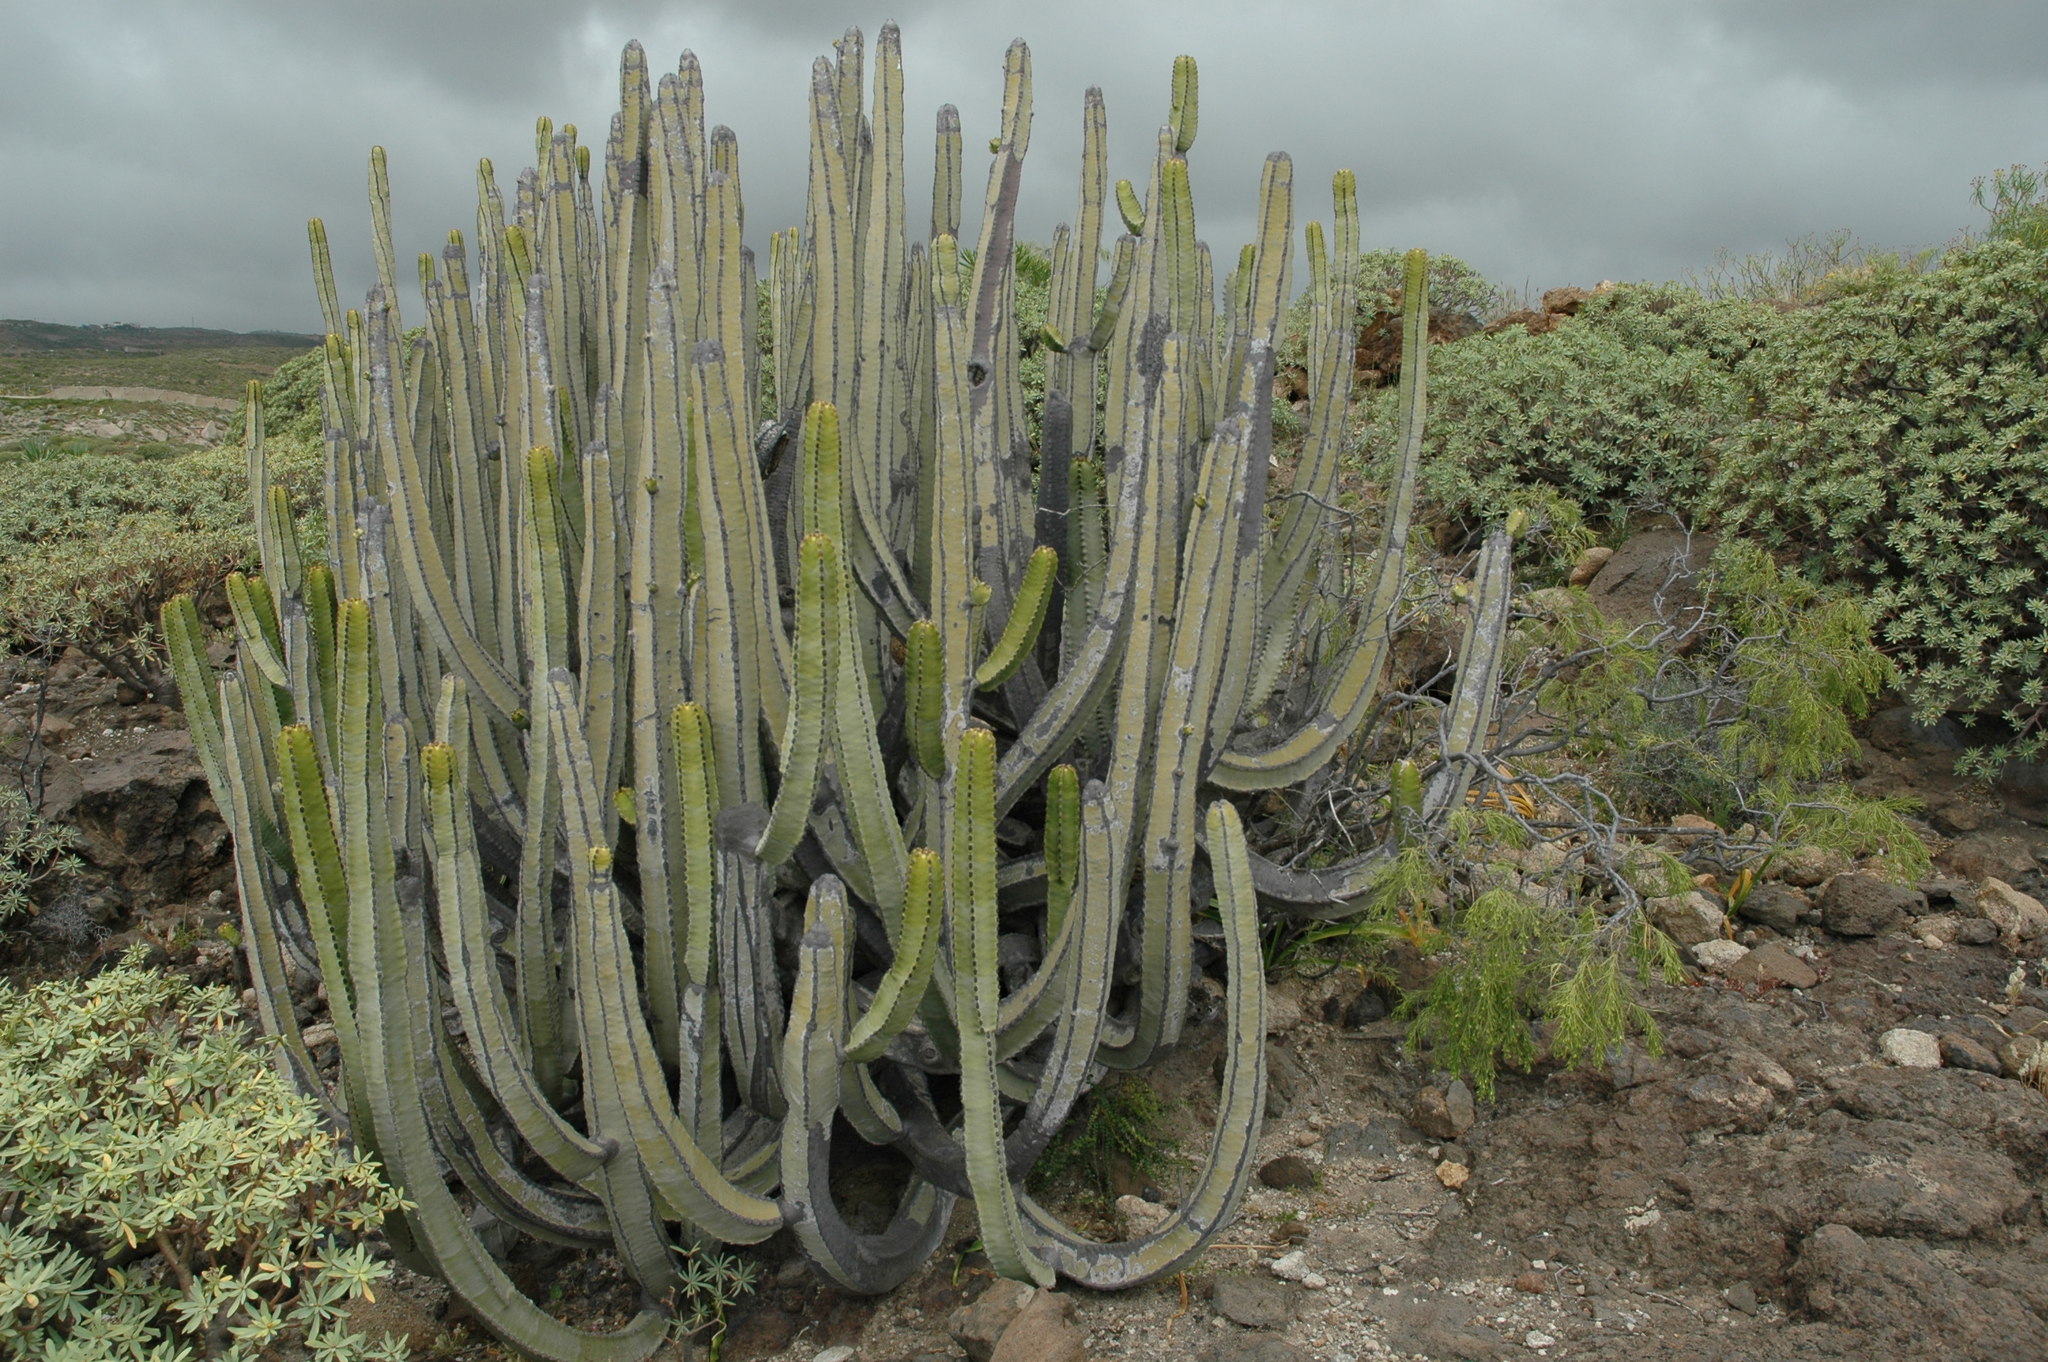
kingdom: Plantae
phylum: Tracheophyta
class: Magnoliopsida
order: Malpighiales
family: Euphorbiaceae
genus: Euphorbia
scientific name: Euphorbia canariensis
